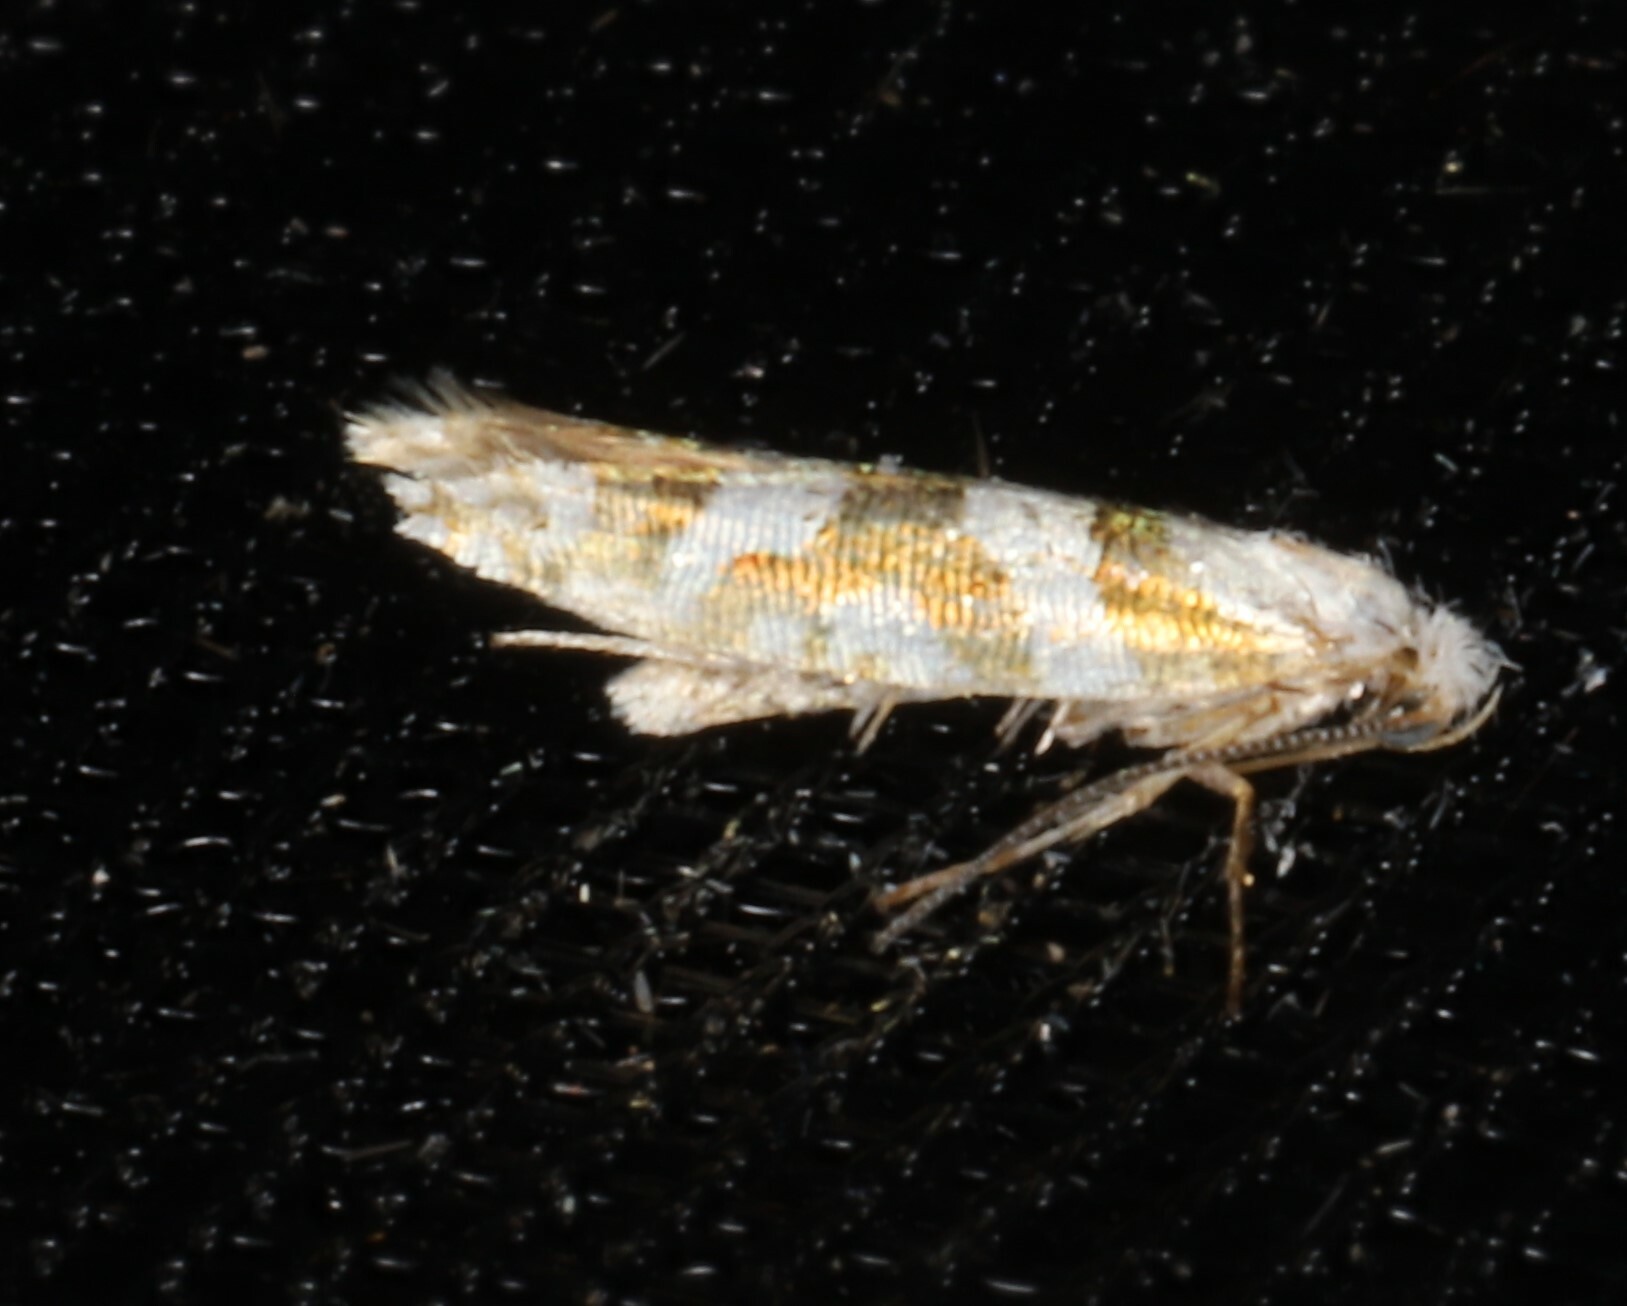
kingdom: Animalia
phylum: Arthropoda
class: Insecta
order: Lepidoptera
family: Argyresthiidae
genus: Argyresthia
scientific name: Argyresthia calliphanes
